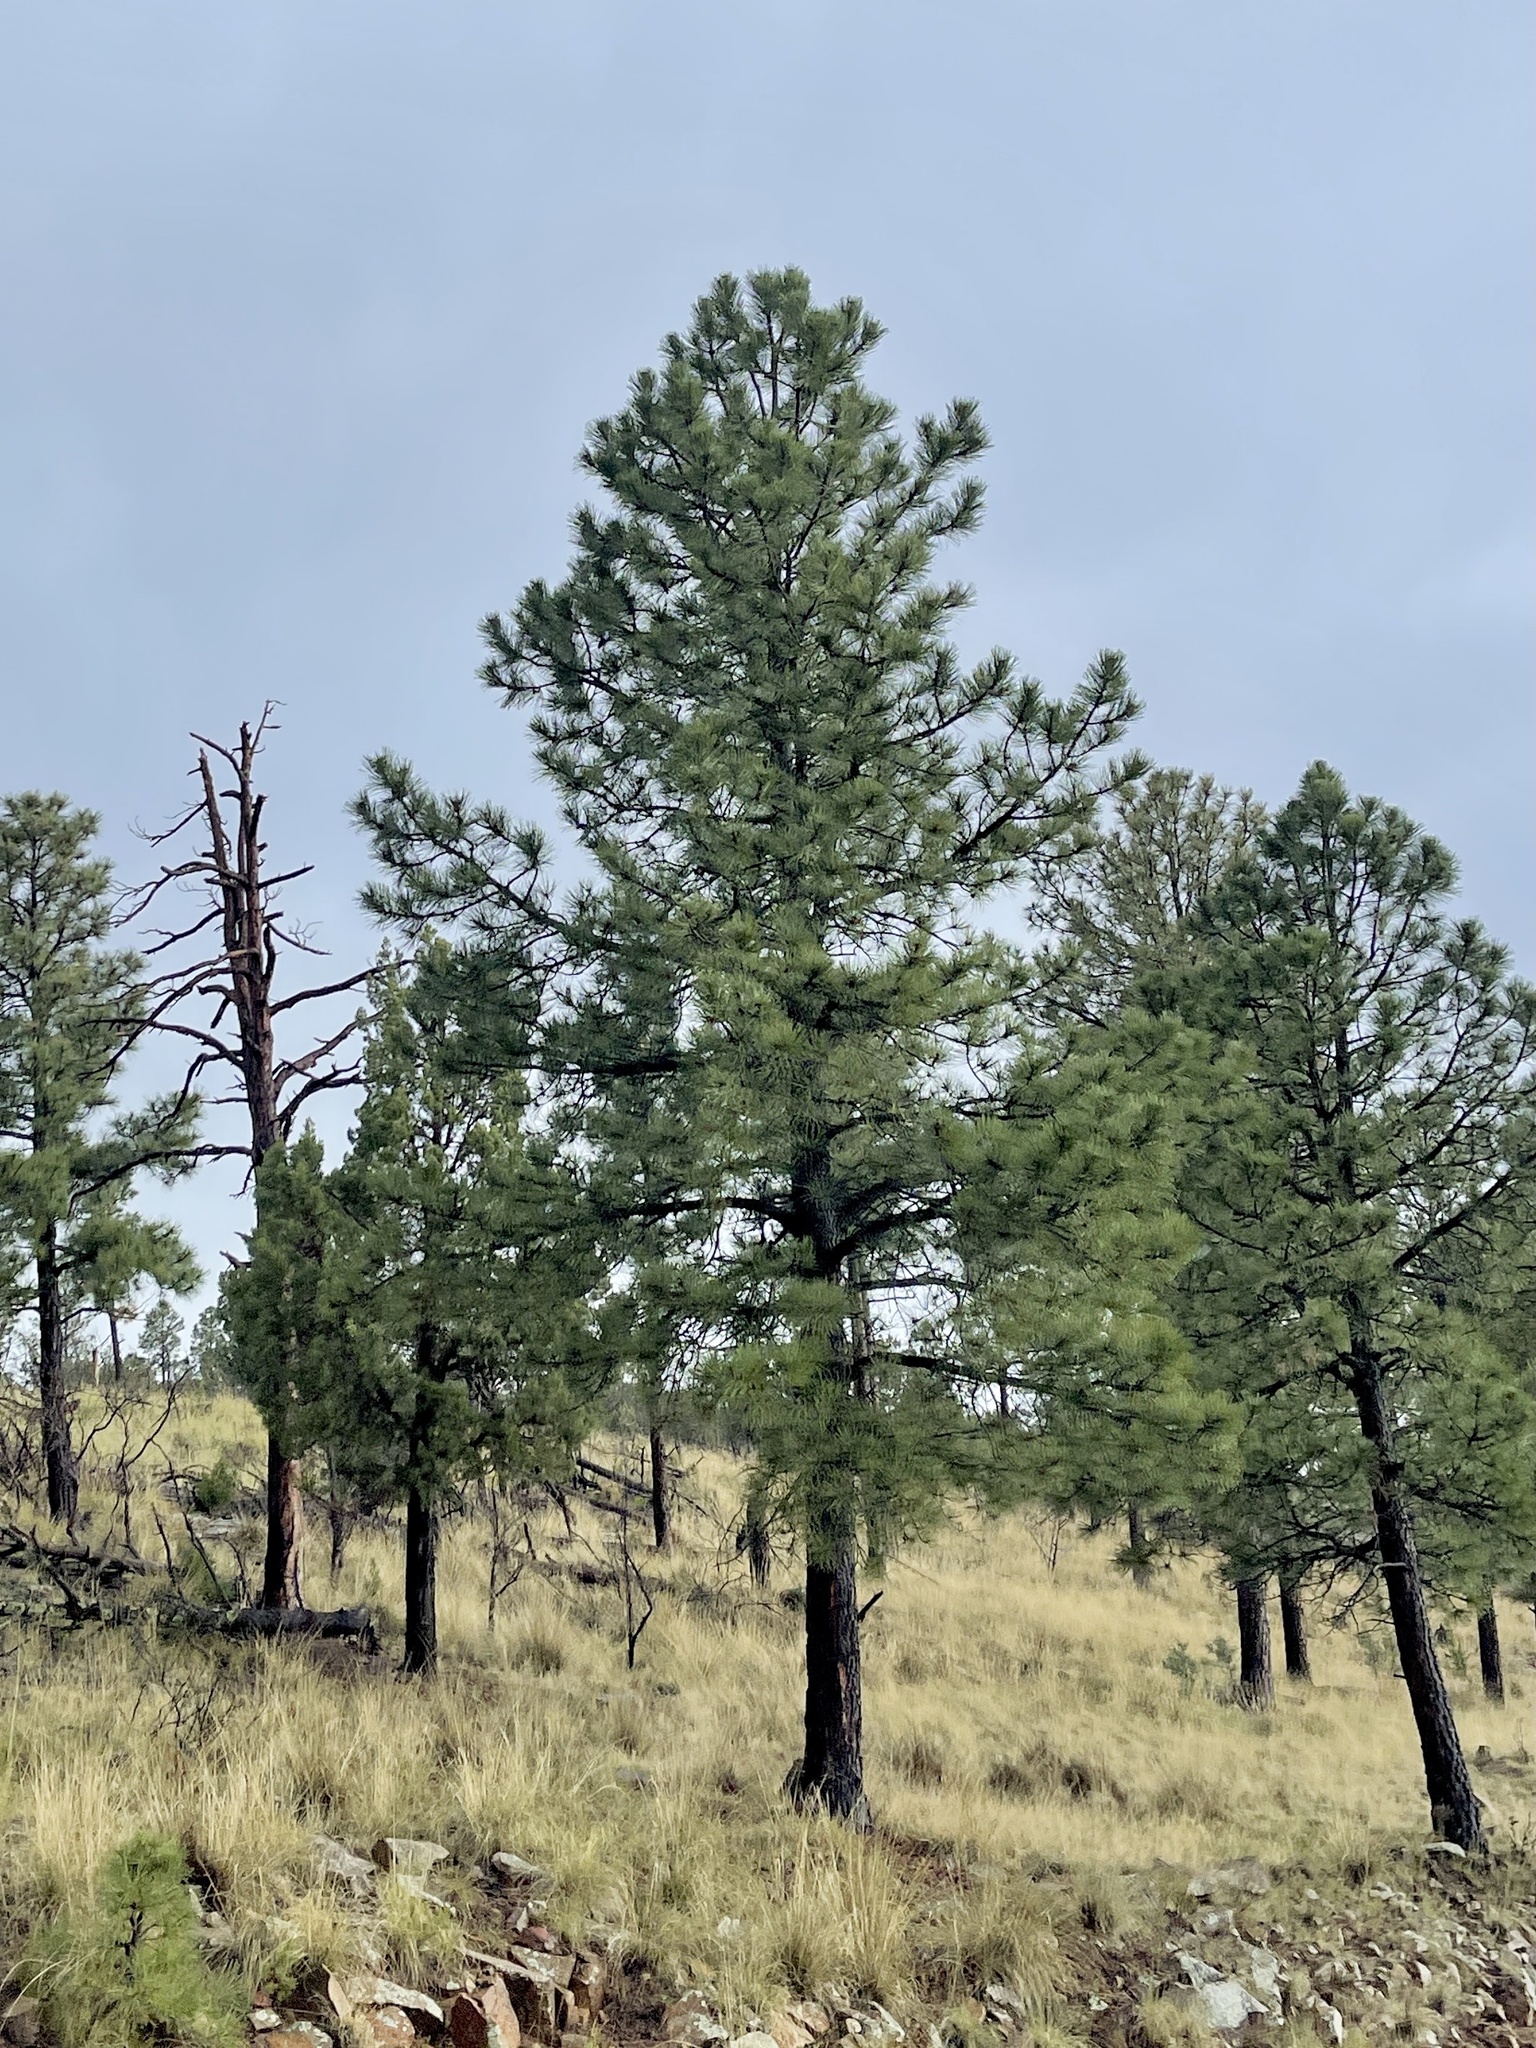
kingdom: Plantae
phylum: Tracheophyta
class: Pinopsida
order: Pinales
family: Pinaceae
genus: Pinus
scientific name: Pinus ponderosa
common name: Western yellow-pine
